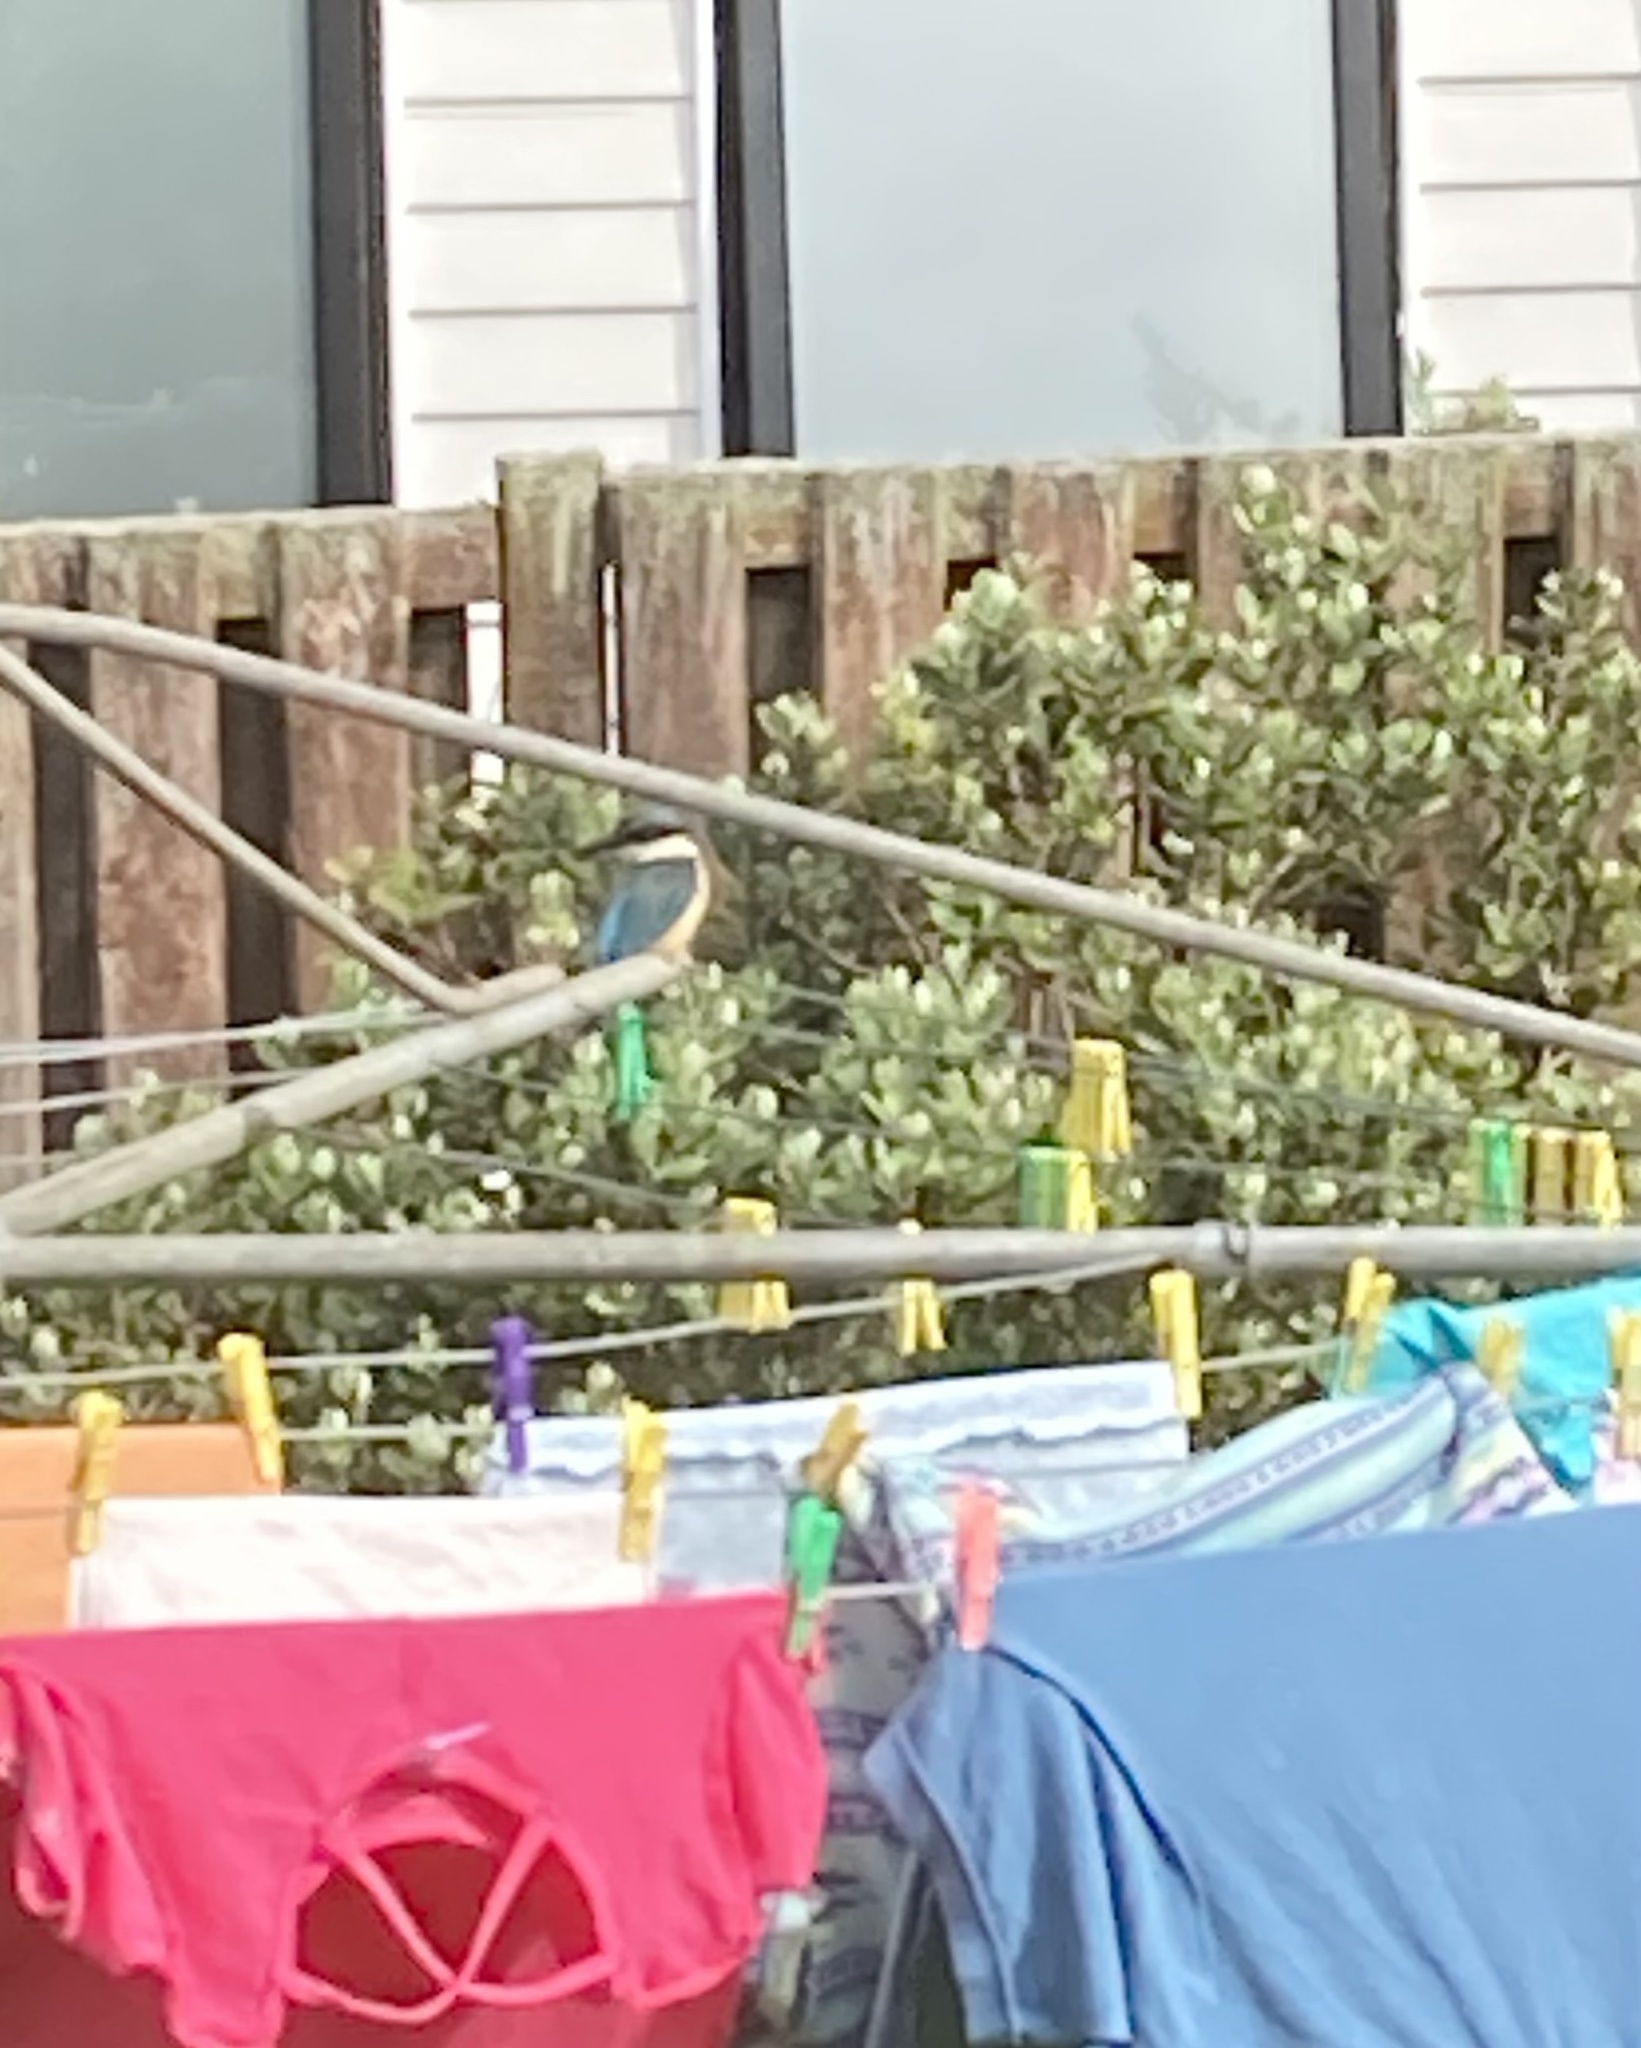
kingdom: Animalia
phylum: Chordata
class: Aves
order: Coraciiformes
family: Alcedinidae
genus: Todiramphus
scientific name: Todiramphus sanctus
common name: Sacred kingfisher
